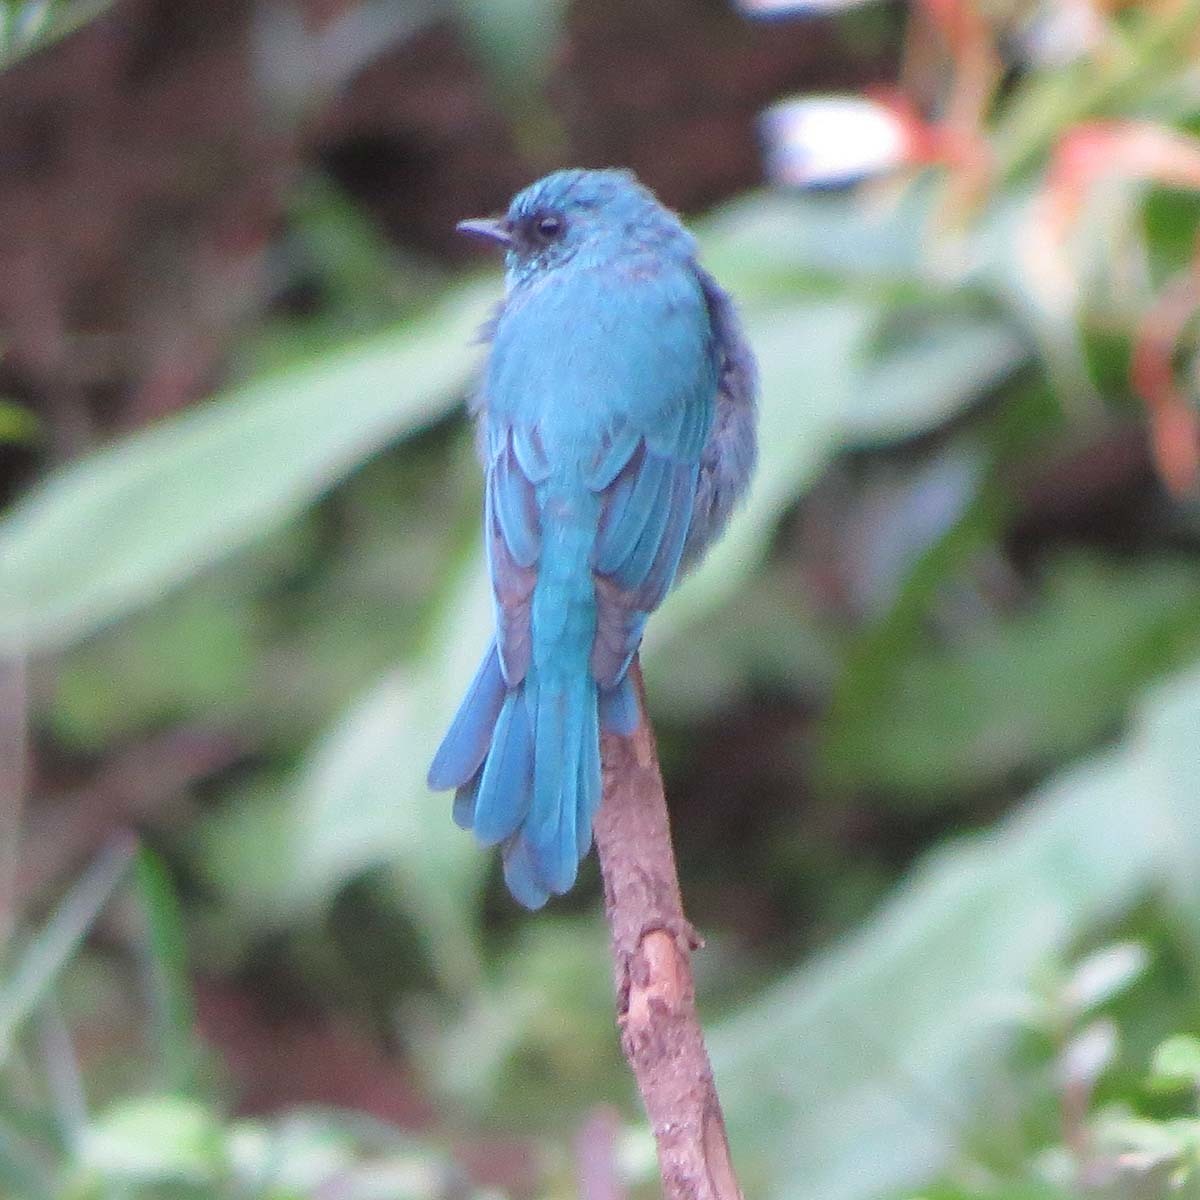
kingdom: Animalia
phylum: Chordata
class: Aves
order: Passeriformes
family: Muscicapidae
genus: Eumyias
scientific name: Eumyias thalassinus
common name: Verditer flycatcher
